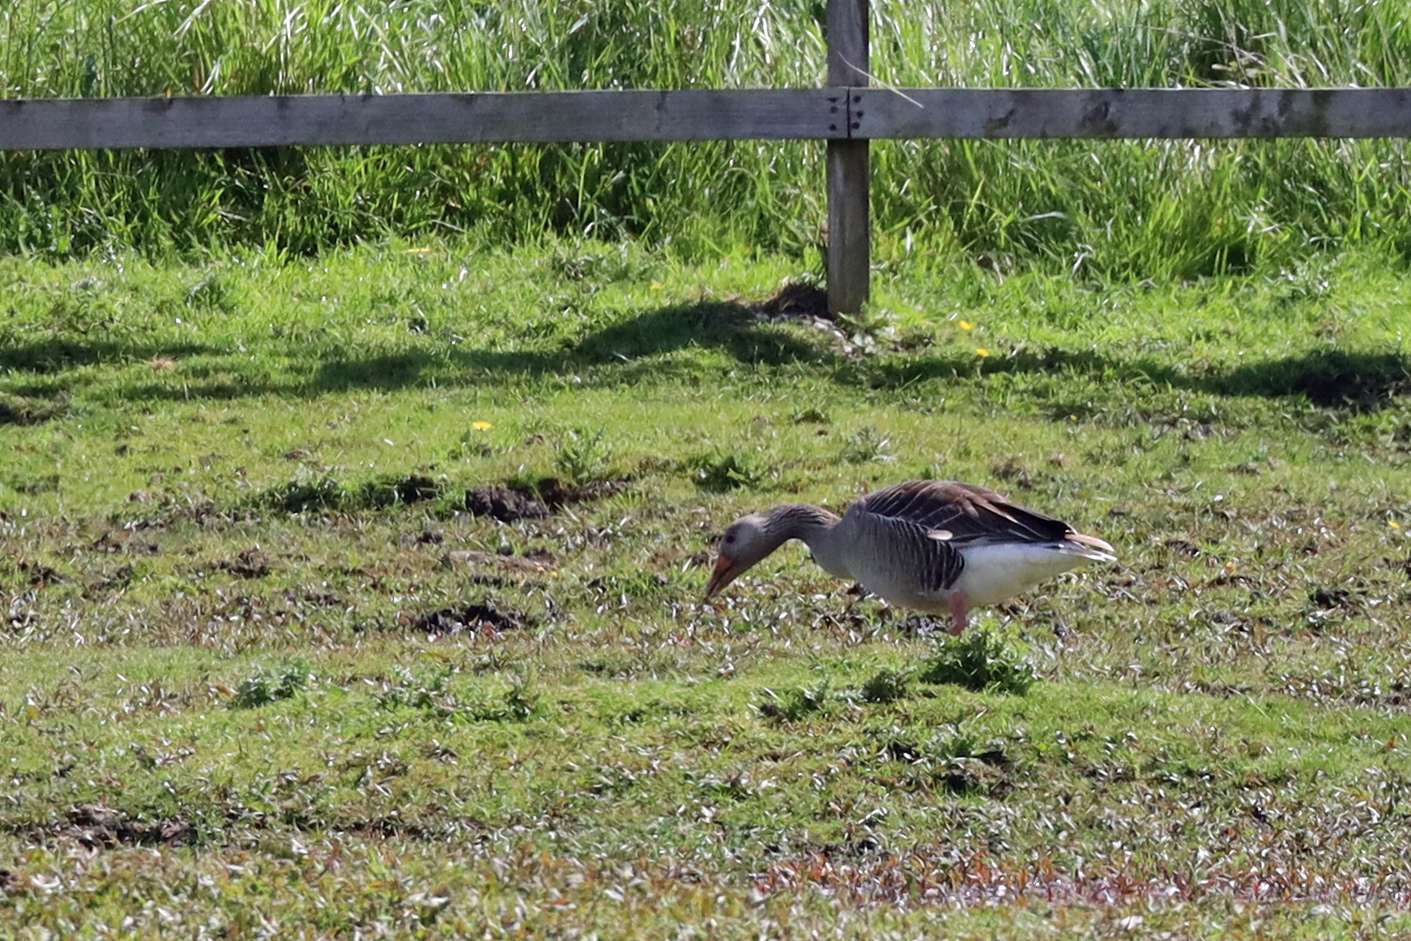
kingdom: Animalia
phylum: Chordata
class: Aves
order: Anseriformes
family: Anatidae
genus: Anser
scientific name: Anser anser
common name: Greylag goose
